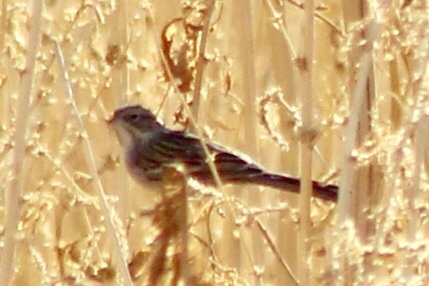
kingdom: Animalia
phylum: Chordata
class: Aves
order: Passeriformes
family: Passerellidae
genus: Pooecetes
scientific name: Pooecetes gramineus
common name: Vesper sparrow
